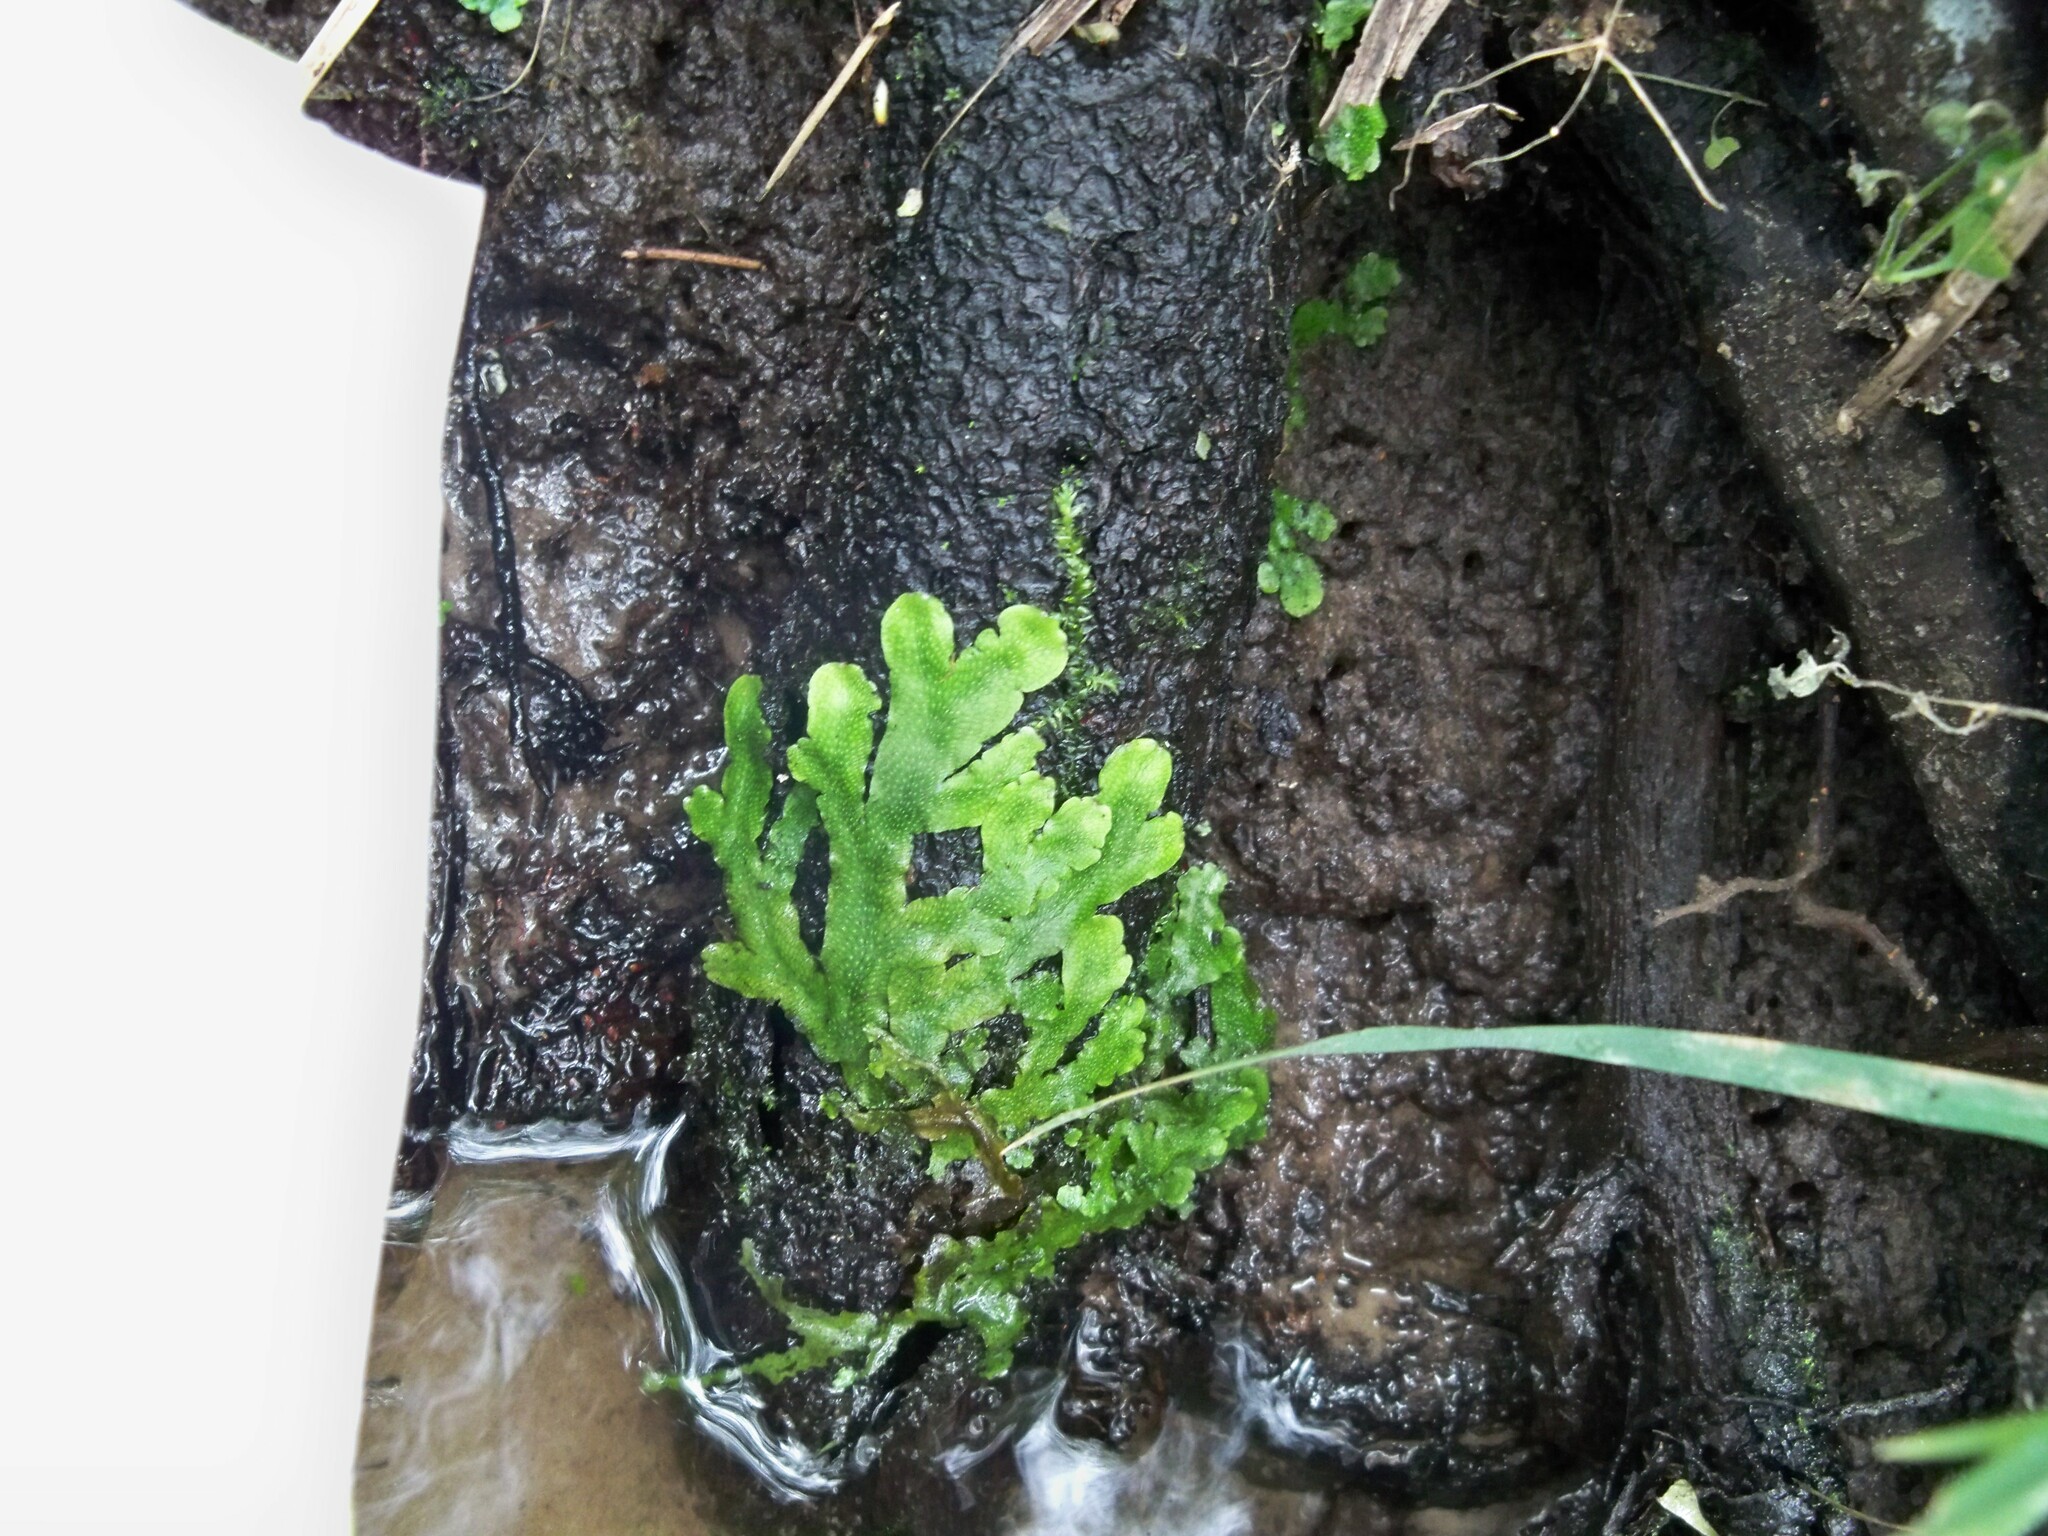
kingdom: Plantae
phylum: Marchantiophyta
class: Marchantiopsida
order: Marchantiales
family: Conocephalaceae
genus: Conocephalum
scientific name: Conocephalum conicum
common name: Great scented liverwort
